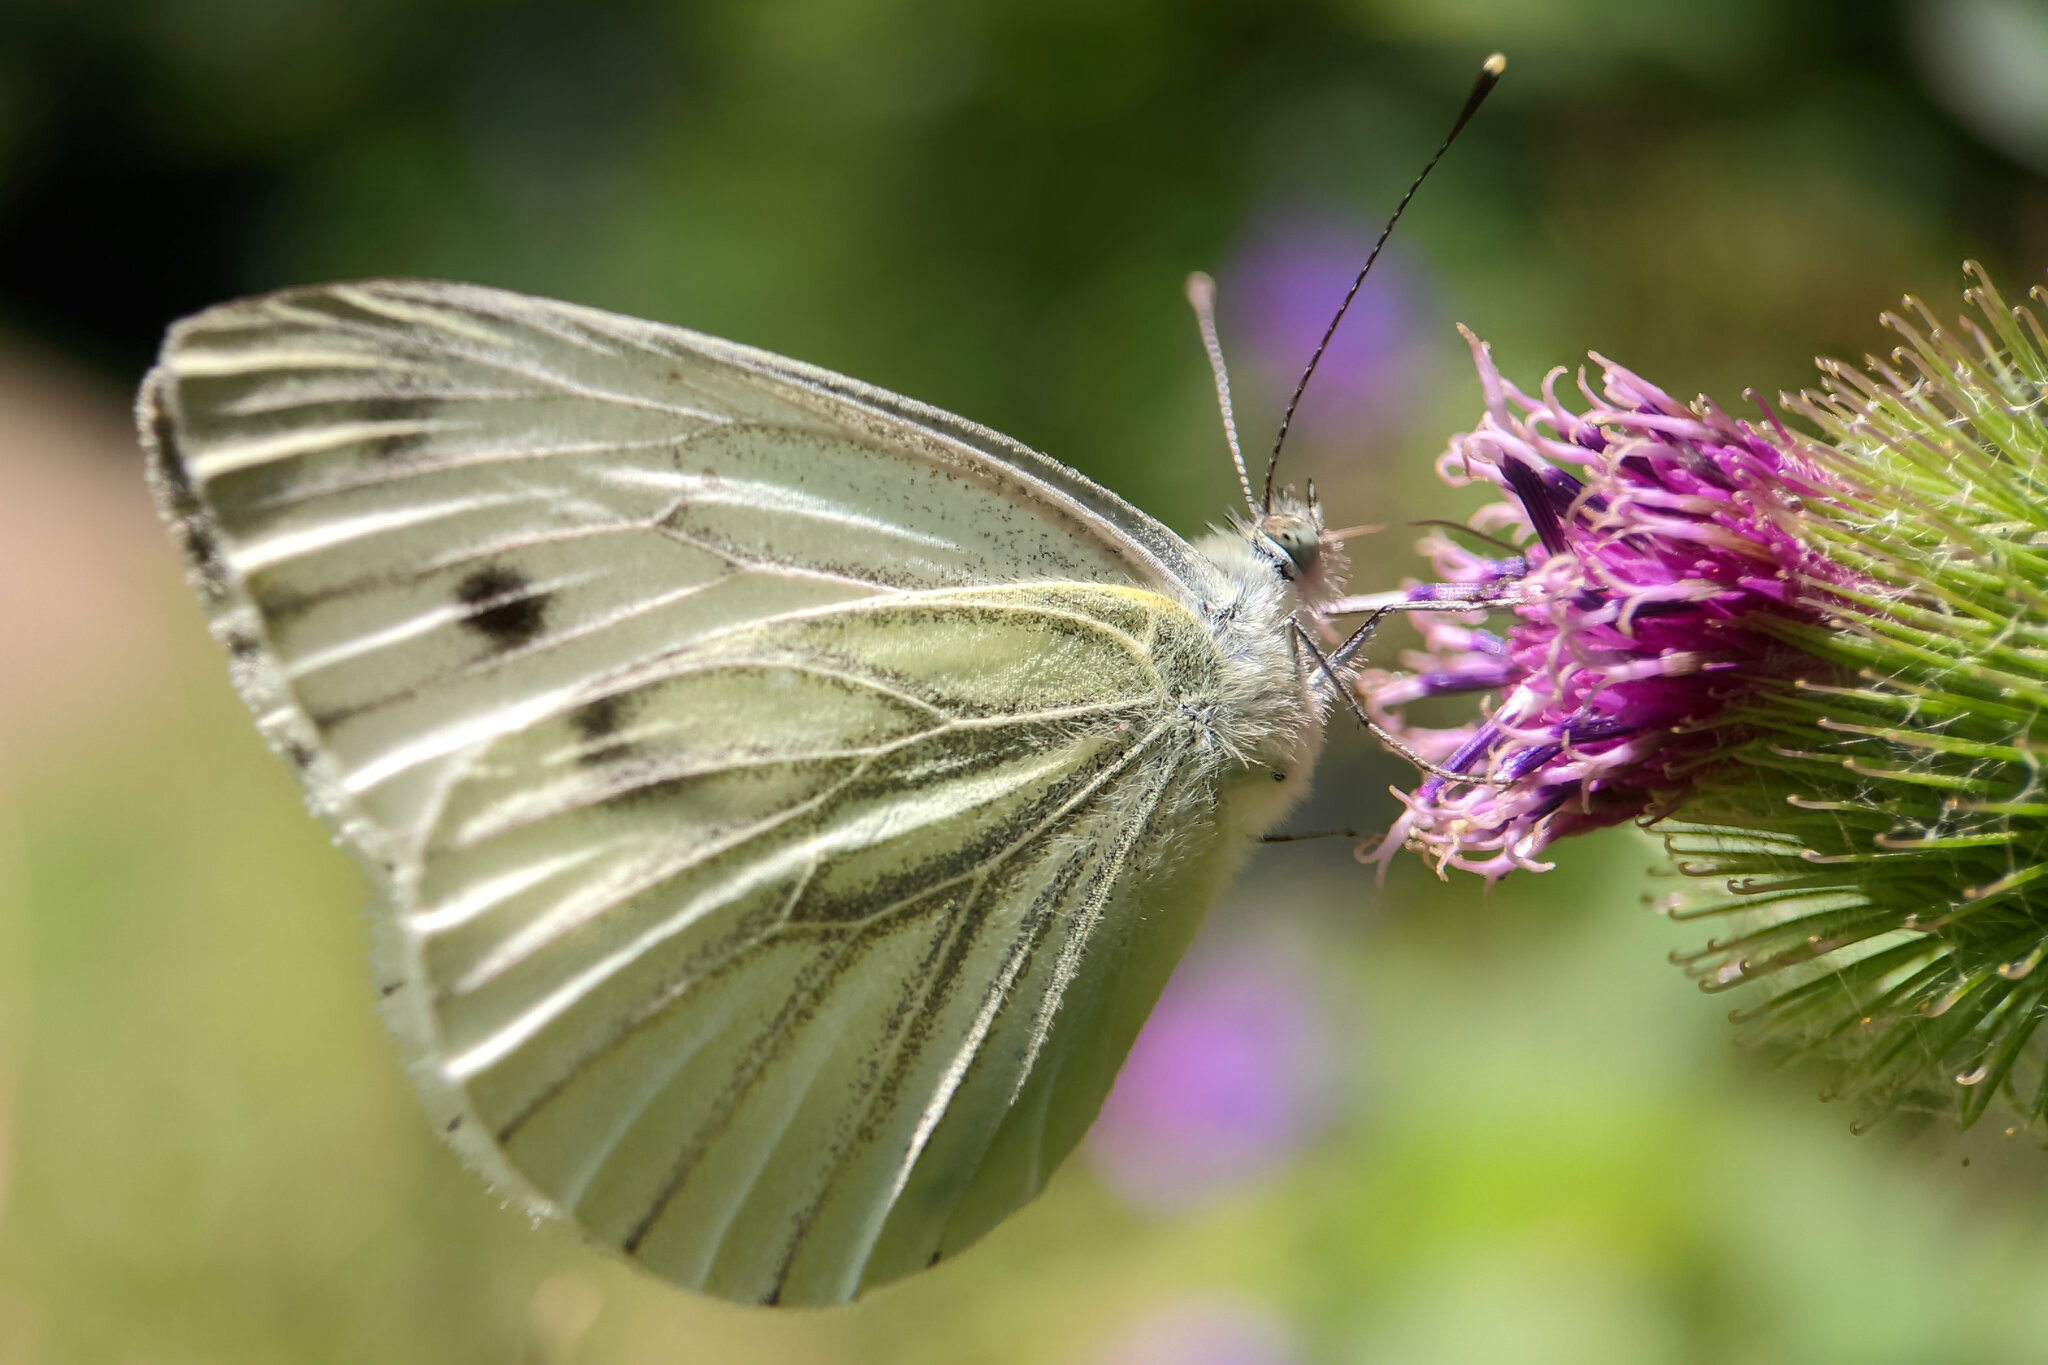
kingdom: Animalia
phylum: Arthropoda
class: Insecta
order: Lepidoptera
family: Pieridae
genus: Pieris
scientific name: Pieris napi
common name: Green-veined white
